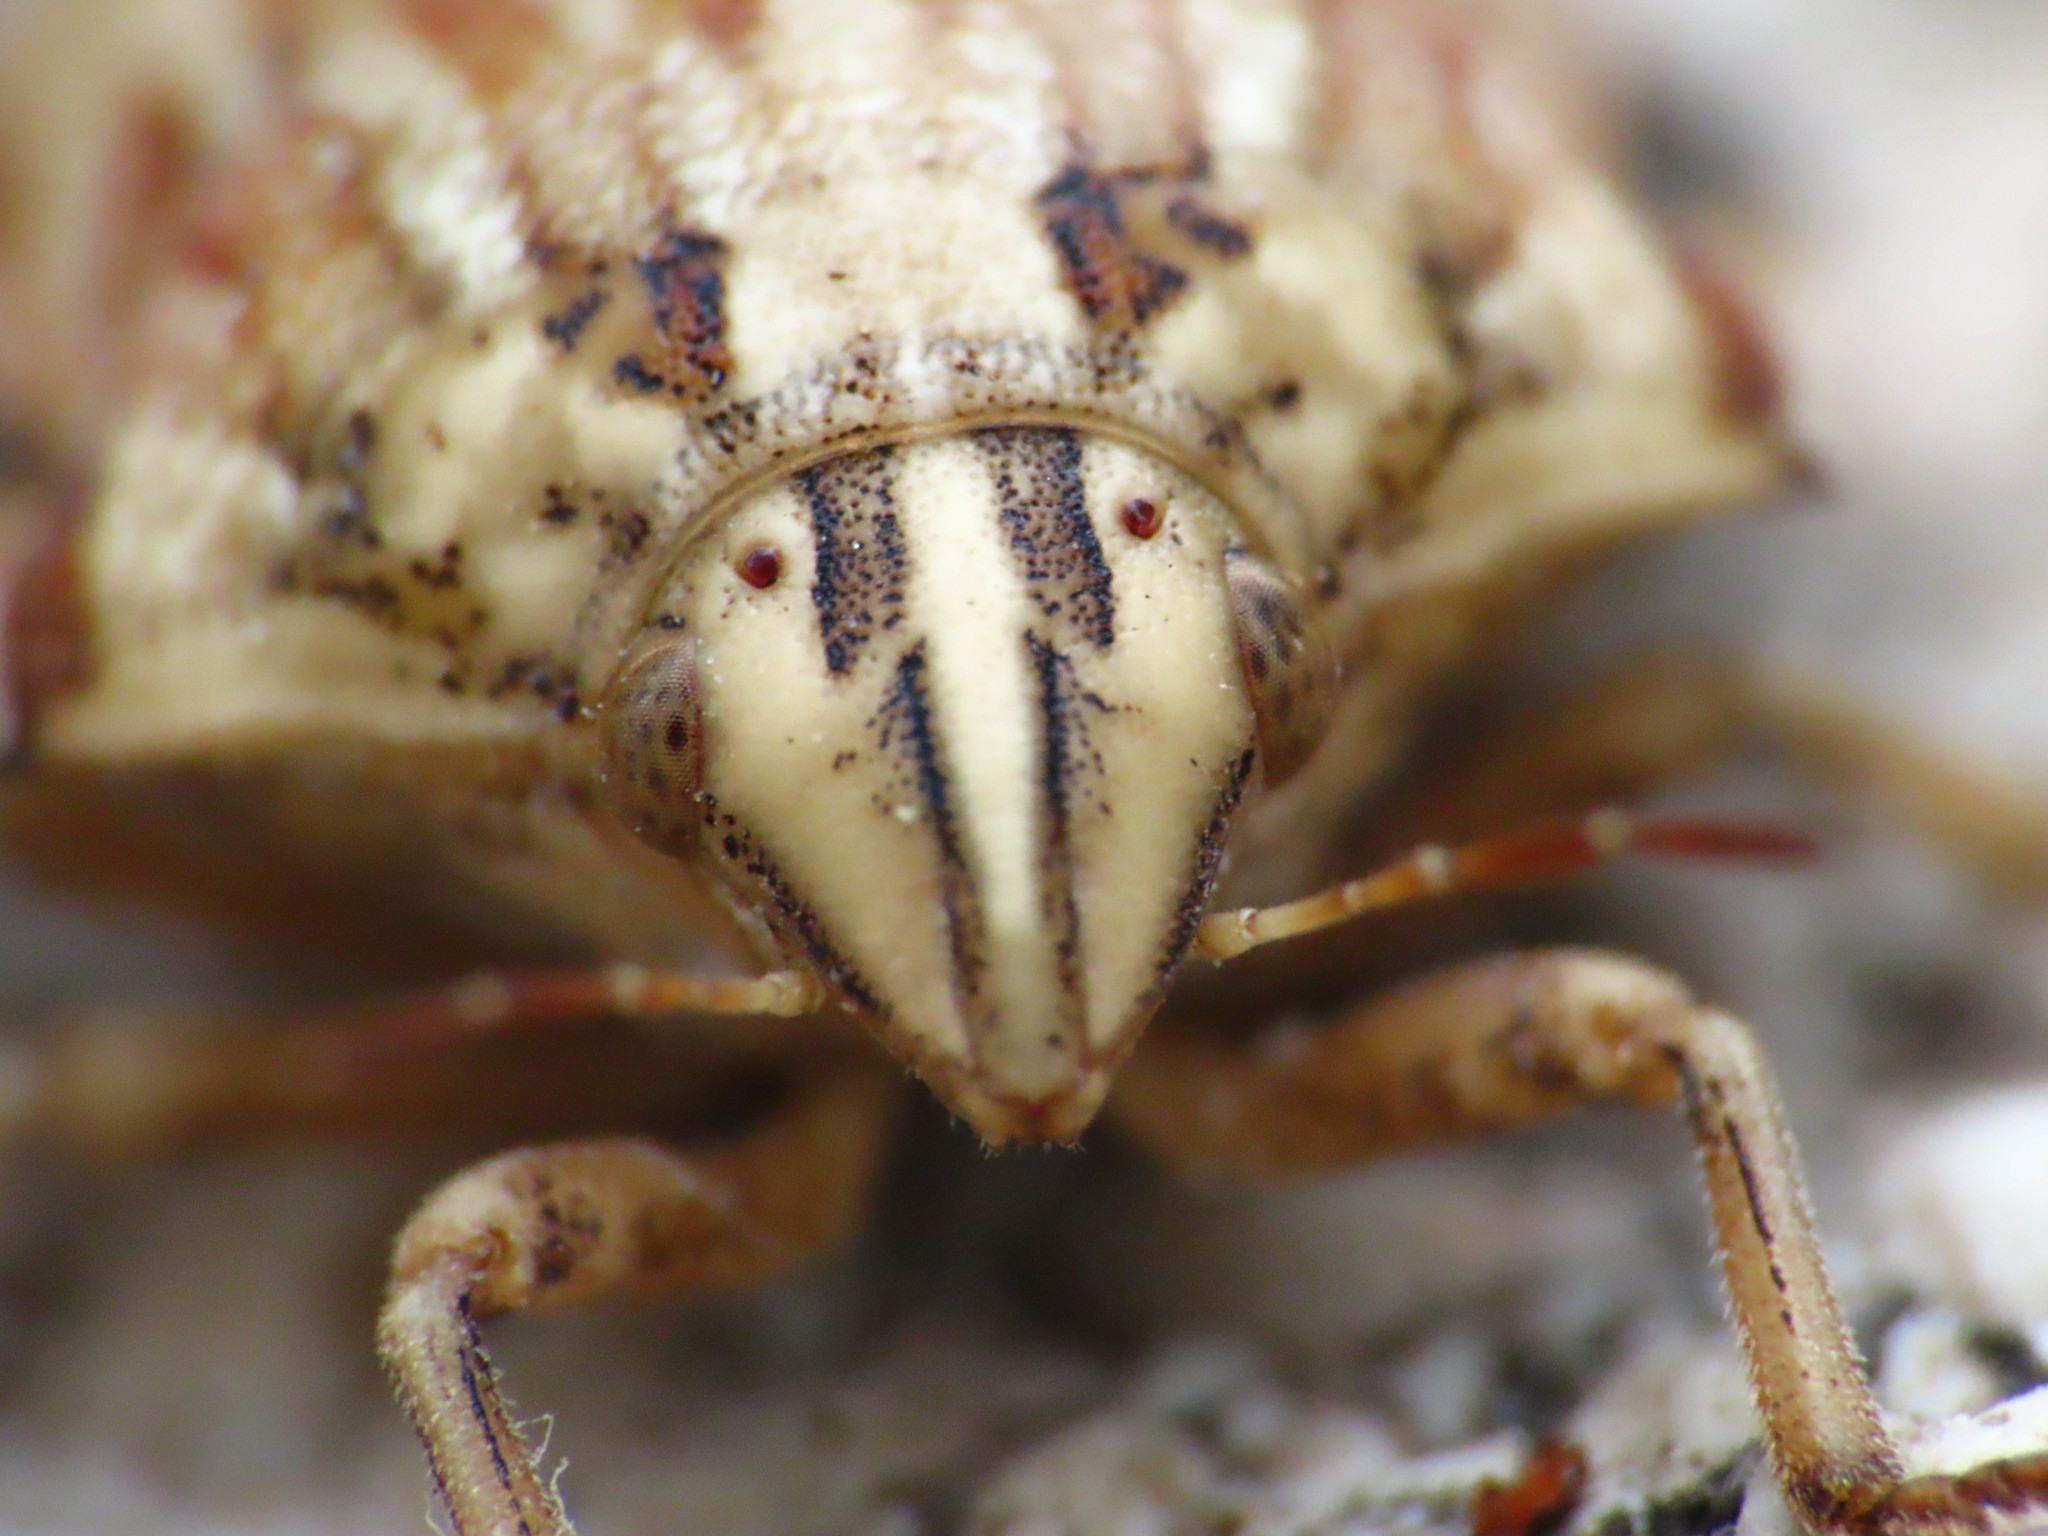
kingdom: Animalia
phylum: Arthropoda
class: Insecta
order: Hemiptera
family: Scutelleridae
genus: Odontotarsus
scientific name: Odontotarsus robustus
